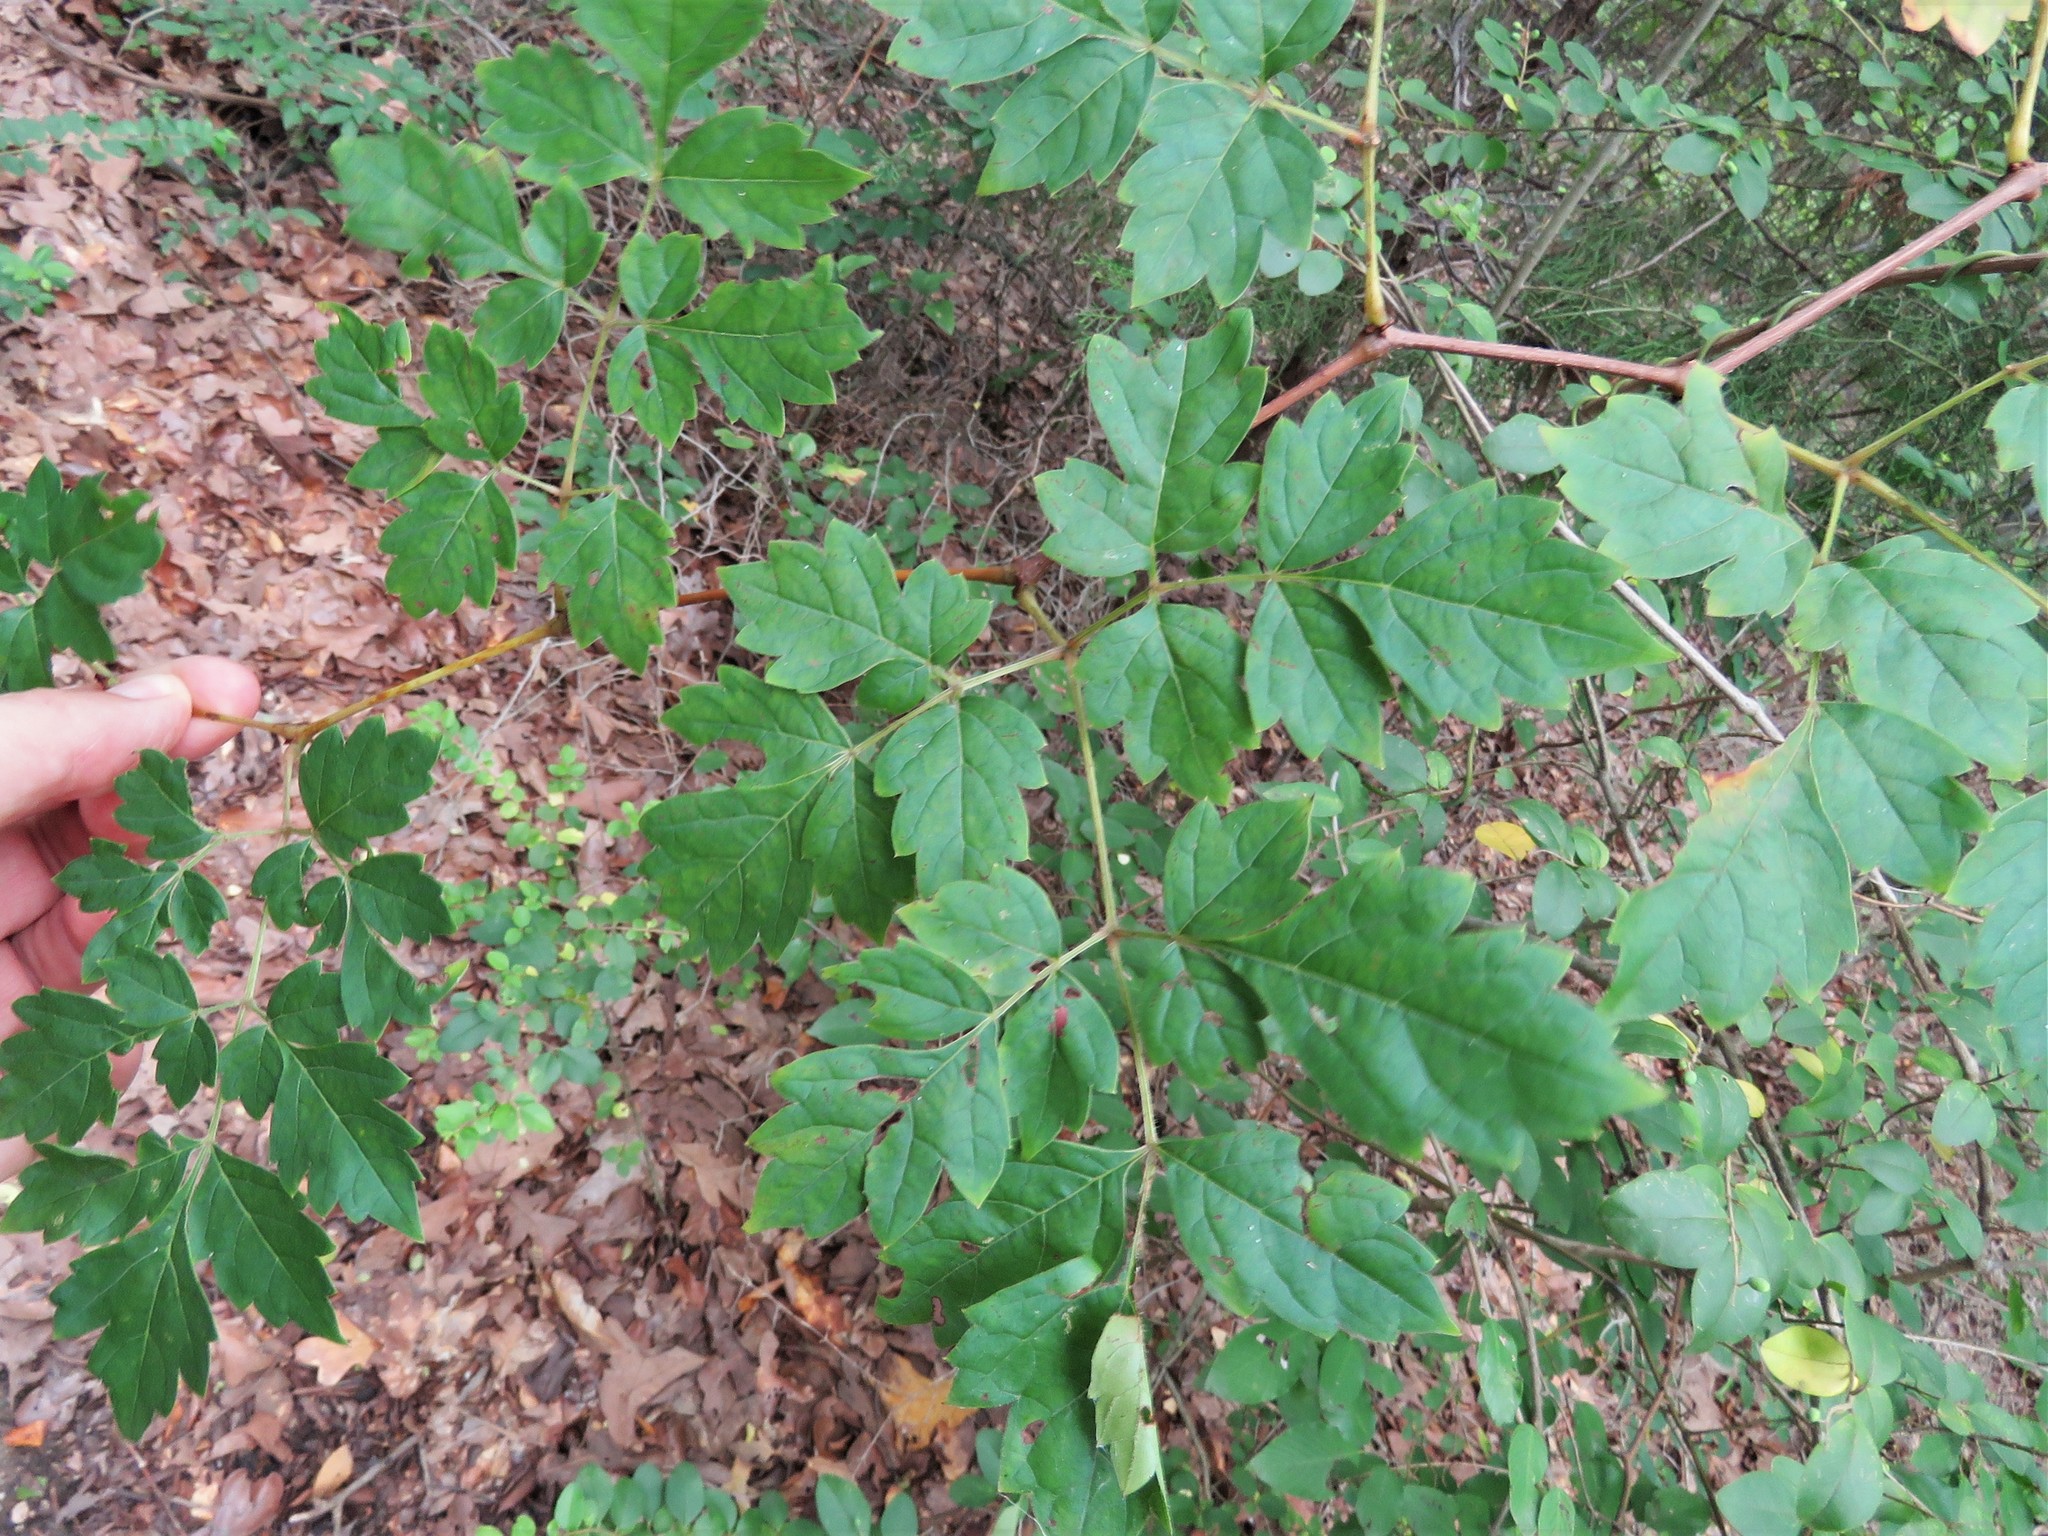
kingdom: Plantae
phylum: Tracheophyta
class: Magnoliopsida
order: Vitales
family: Vitaceae
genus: Nekemias
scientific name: Nekemias arborea
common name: Peppervine
